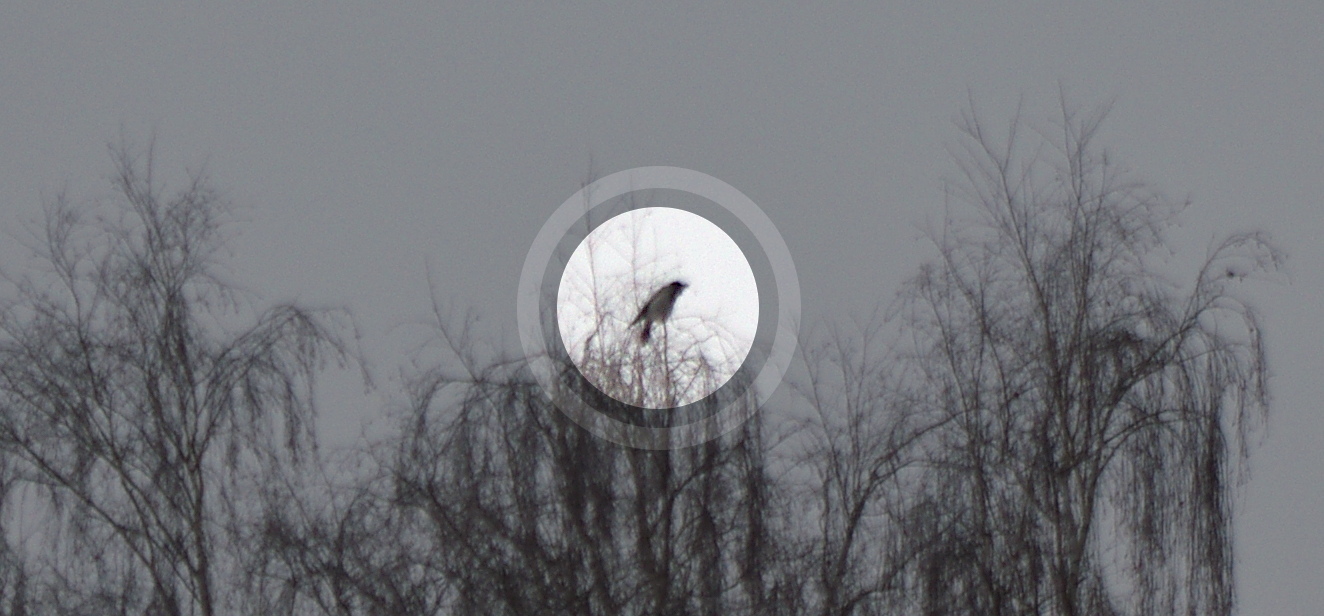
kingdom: Animalia
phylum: Chordata
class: Aves
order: Passeriformes
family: Corvidae
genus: Corvus
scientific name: Corvus cornix
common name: Hooded crow
